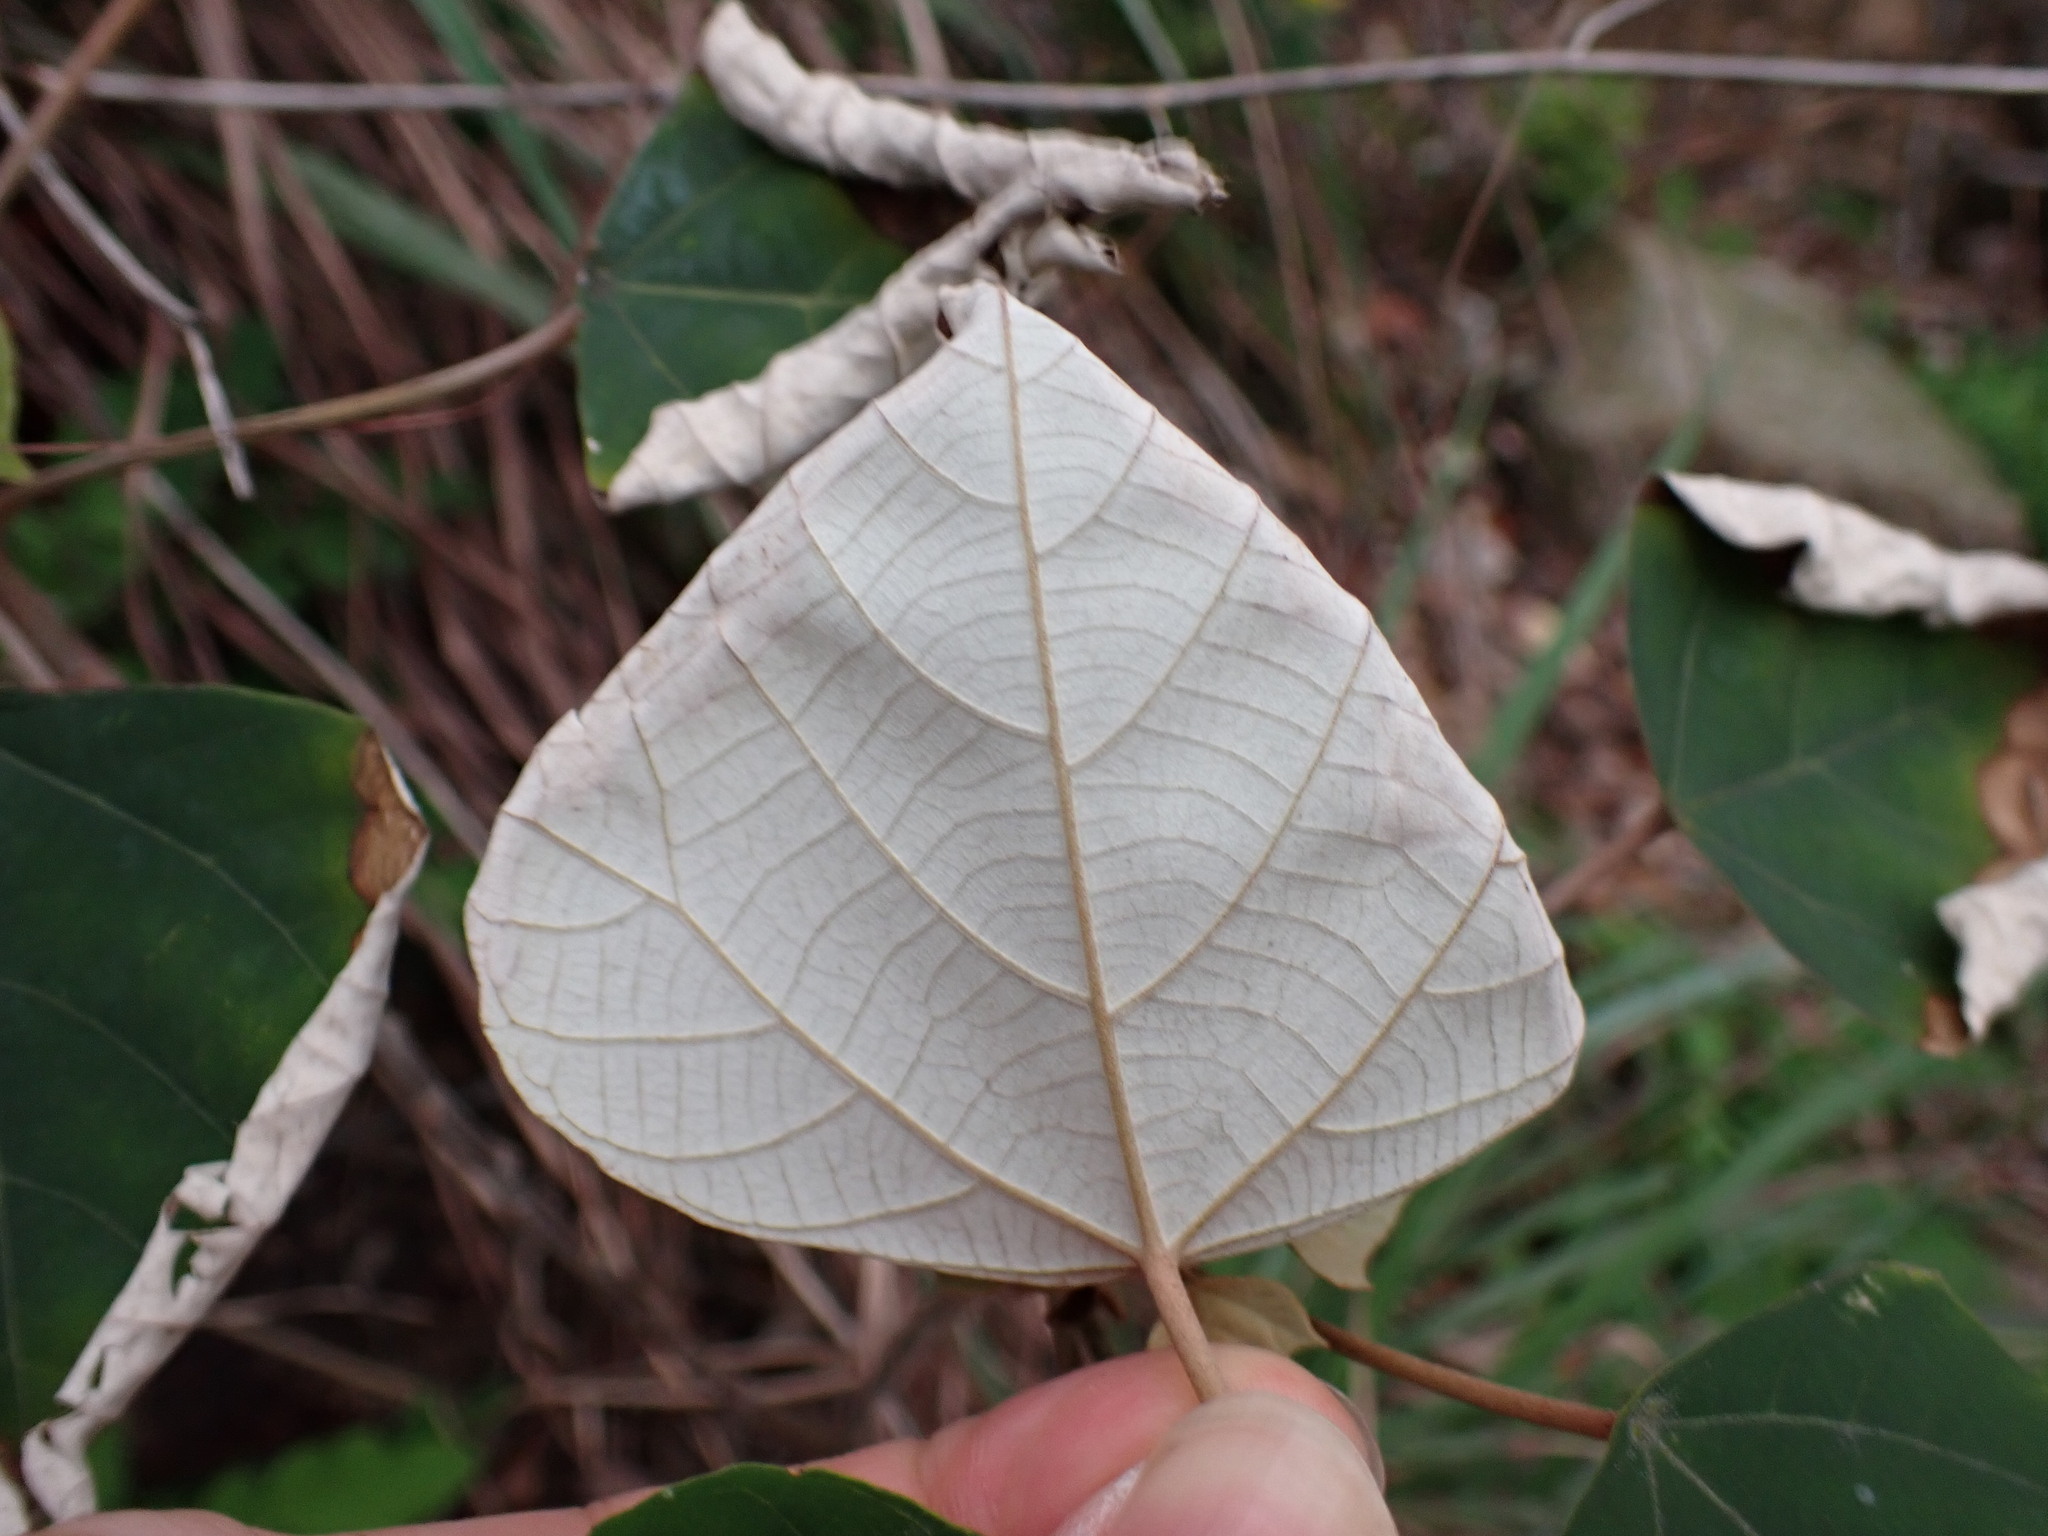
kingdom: Plantae
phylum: Tracheophyta
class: Magnoliopsida
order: Malpighiales
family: Euphorbiaceae
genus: Mallotus
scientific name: Mallotus paniculatus
